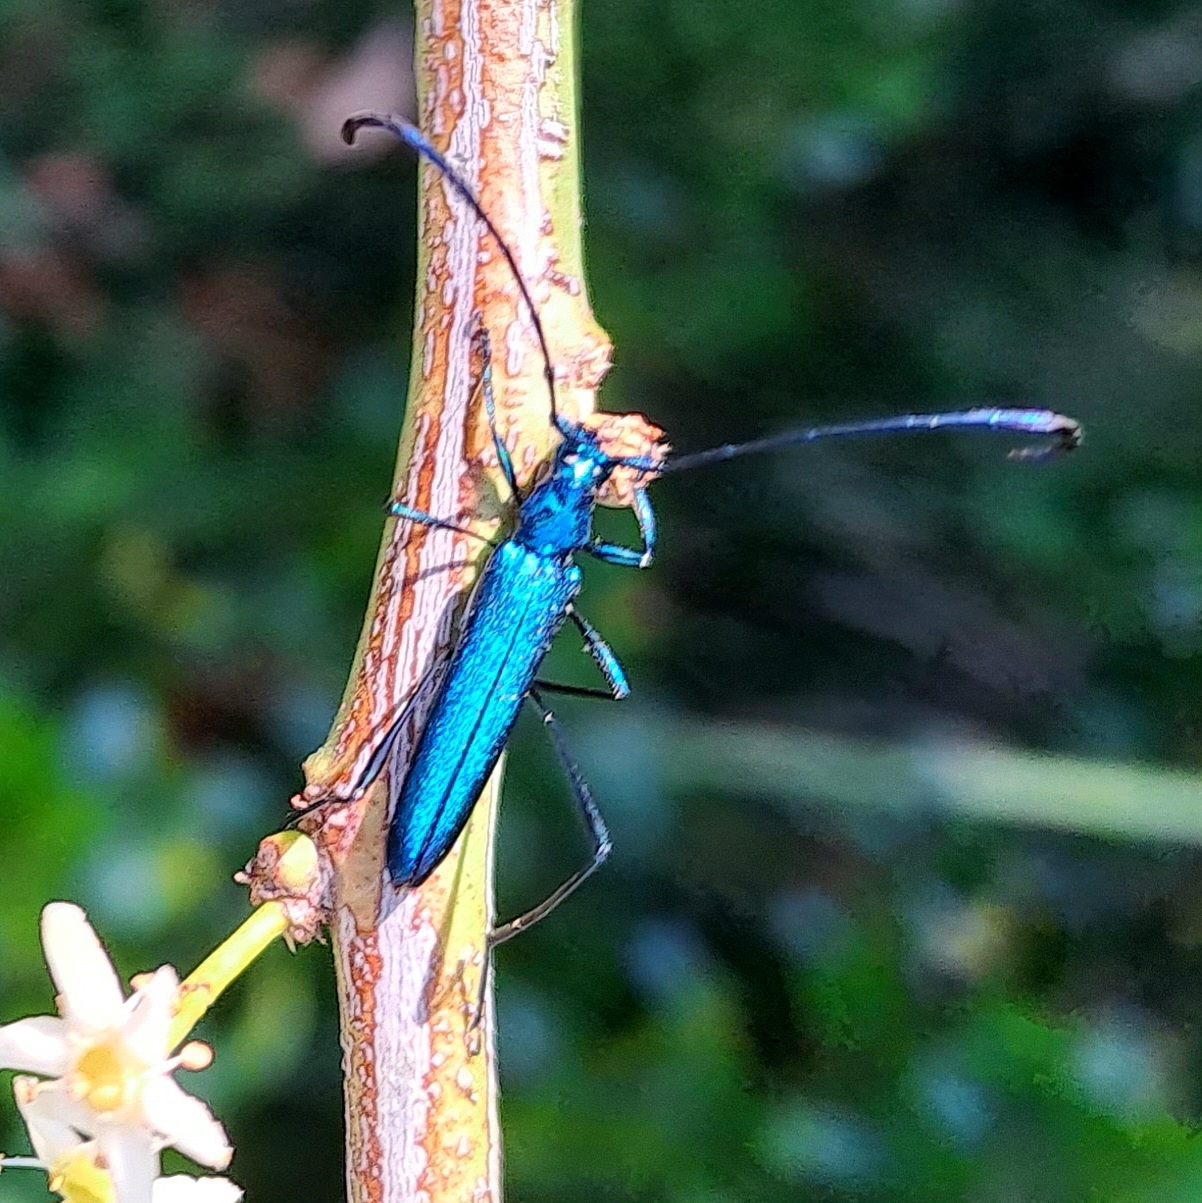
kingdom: Animalia
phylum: Arthropoda
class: Insecta
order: Coleoptera
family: Cerambycidae
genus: Promeces
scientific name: Promeces longipes
